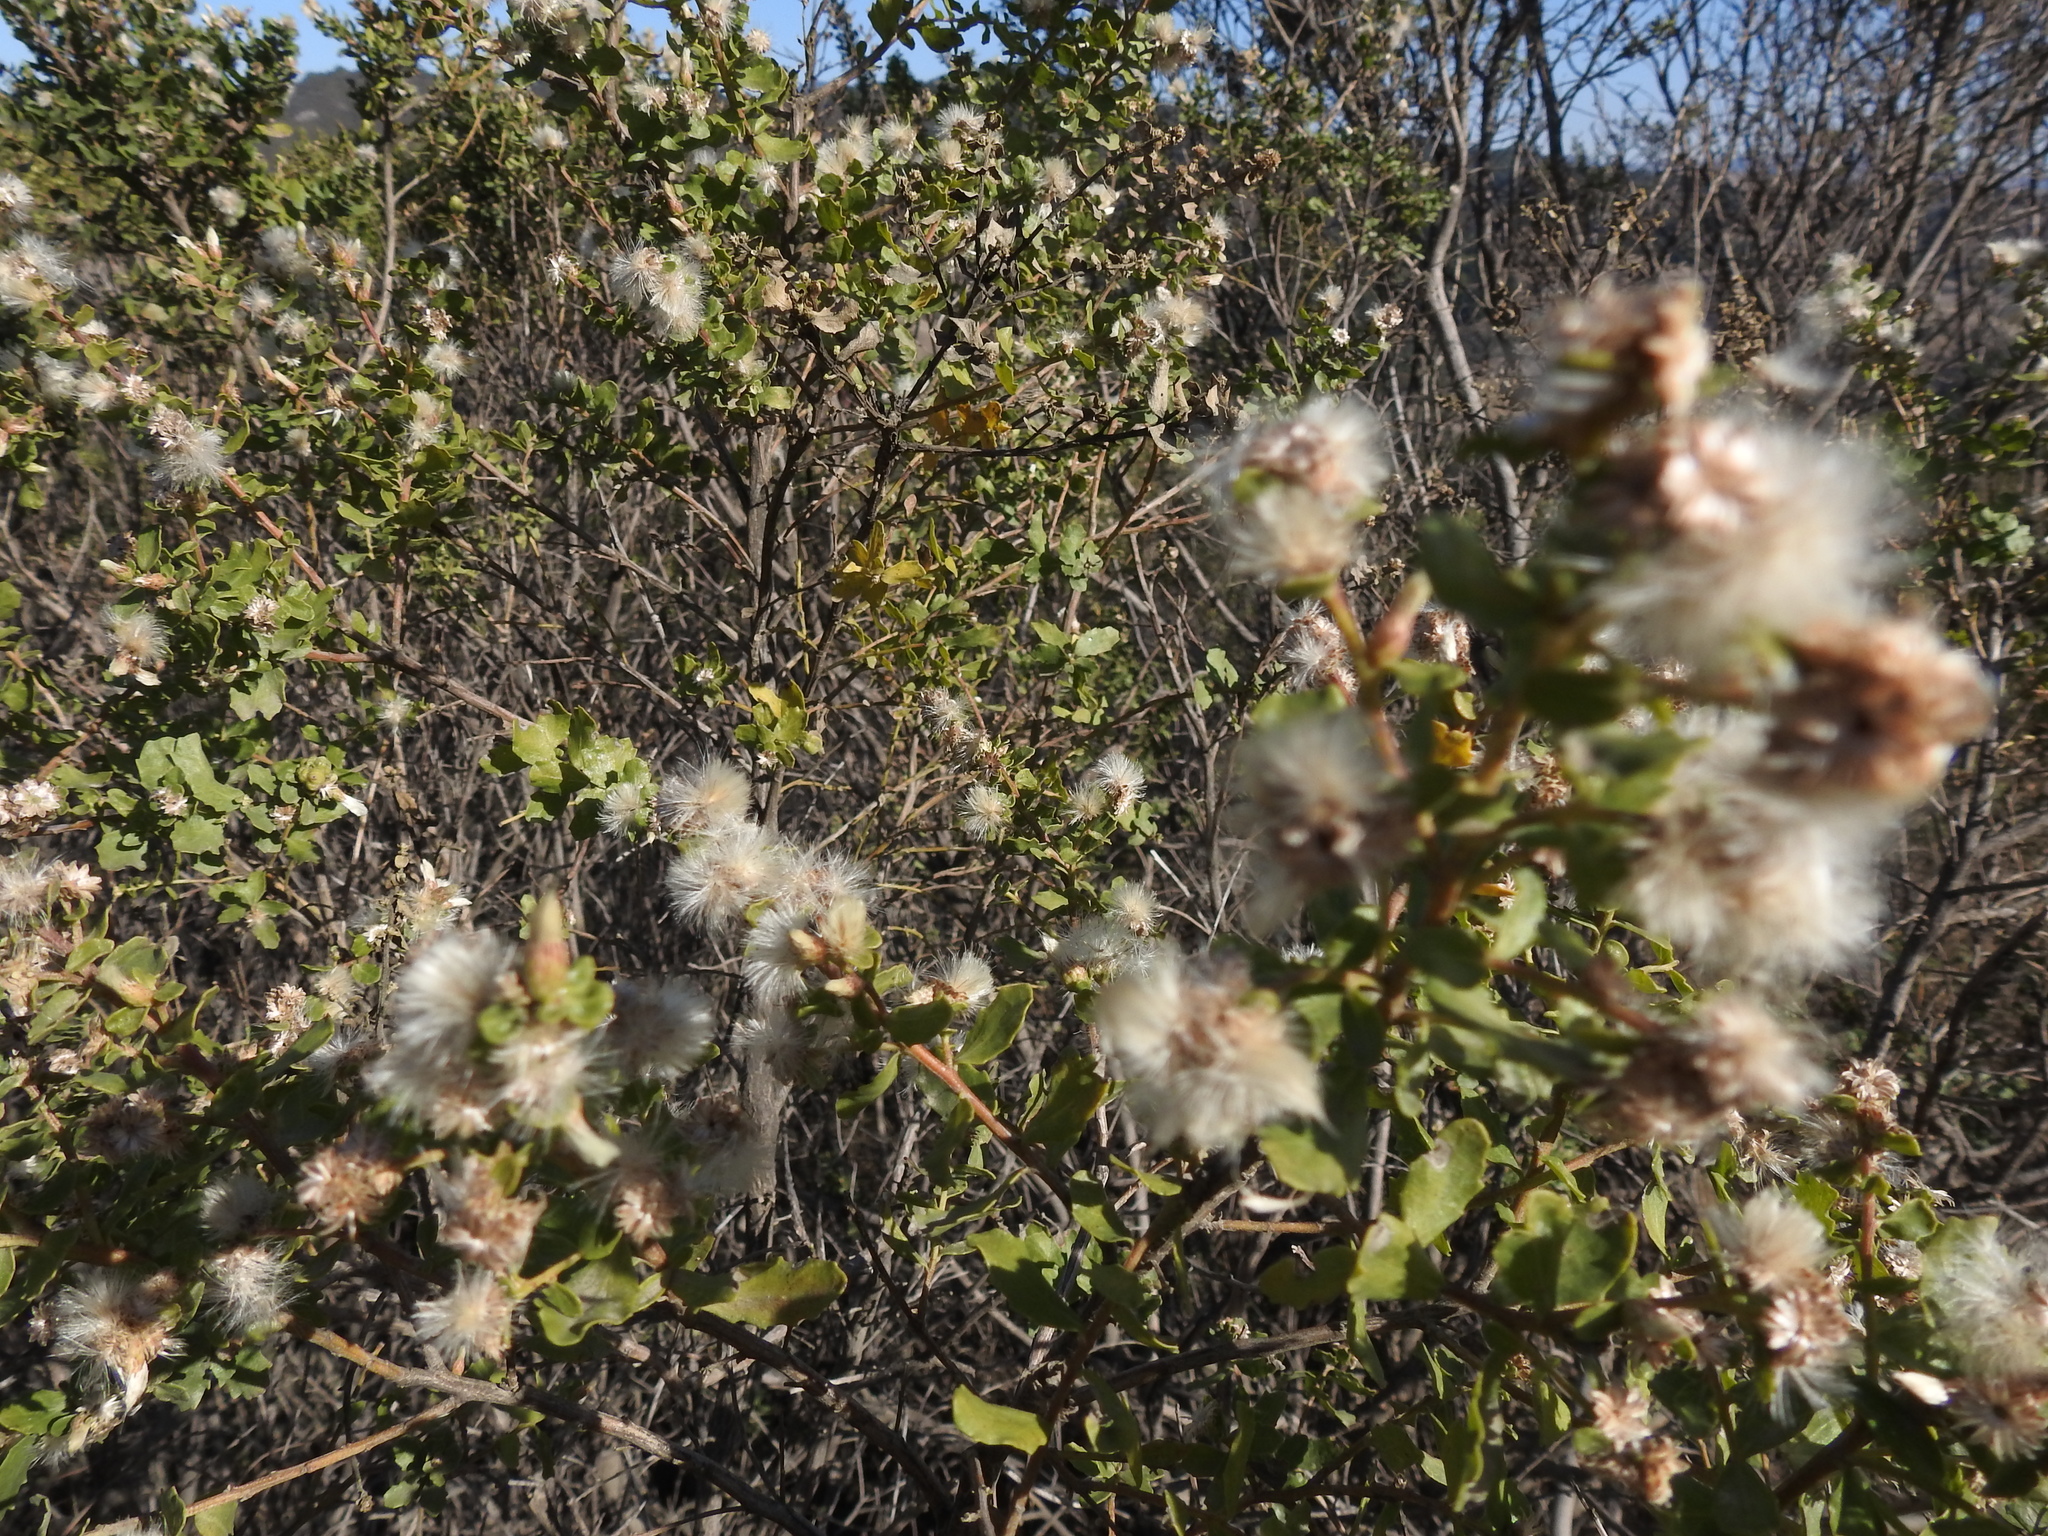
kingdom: Plantae
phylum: Tracheophyta
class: Magnoliopsida
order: Asterales
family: Asteraceae
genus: Baccharis
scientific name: Baccharis pilularis
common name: Coyotebrush
